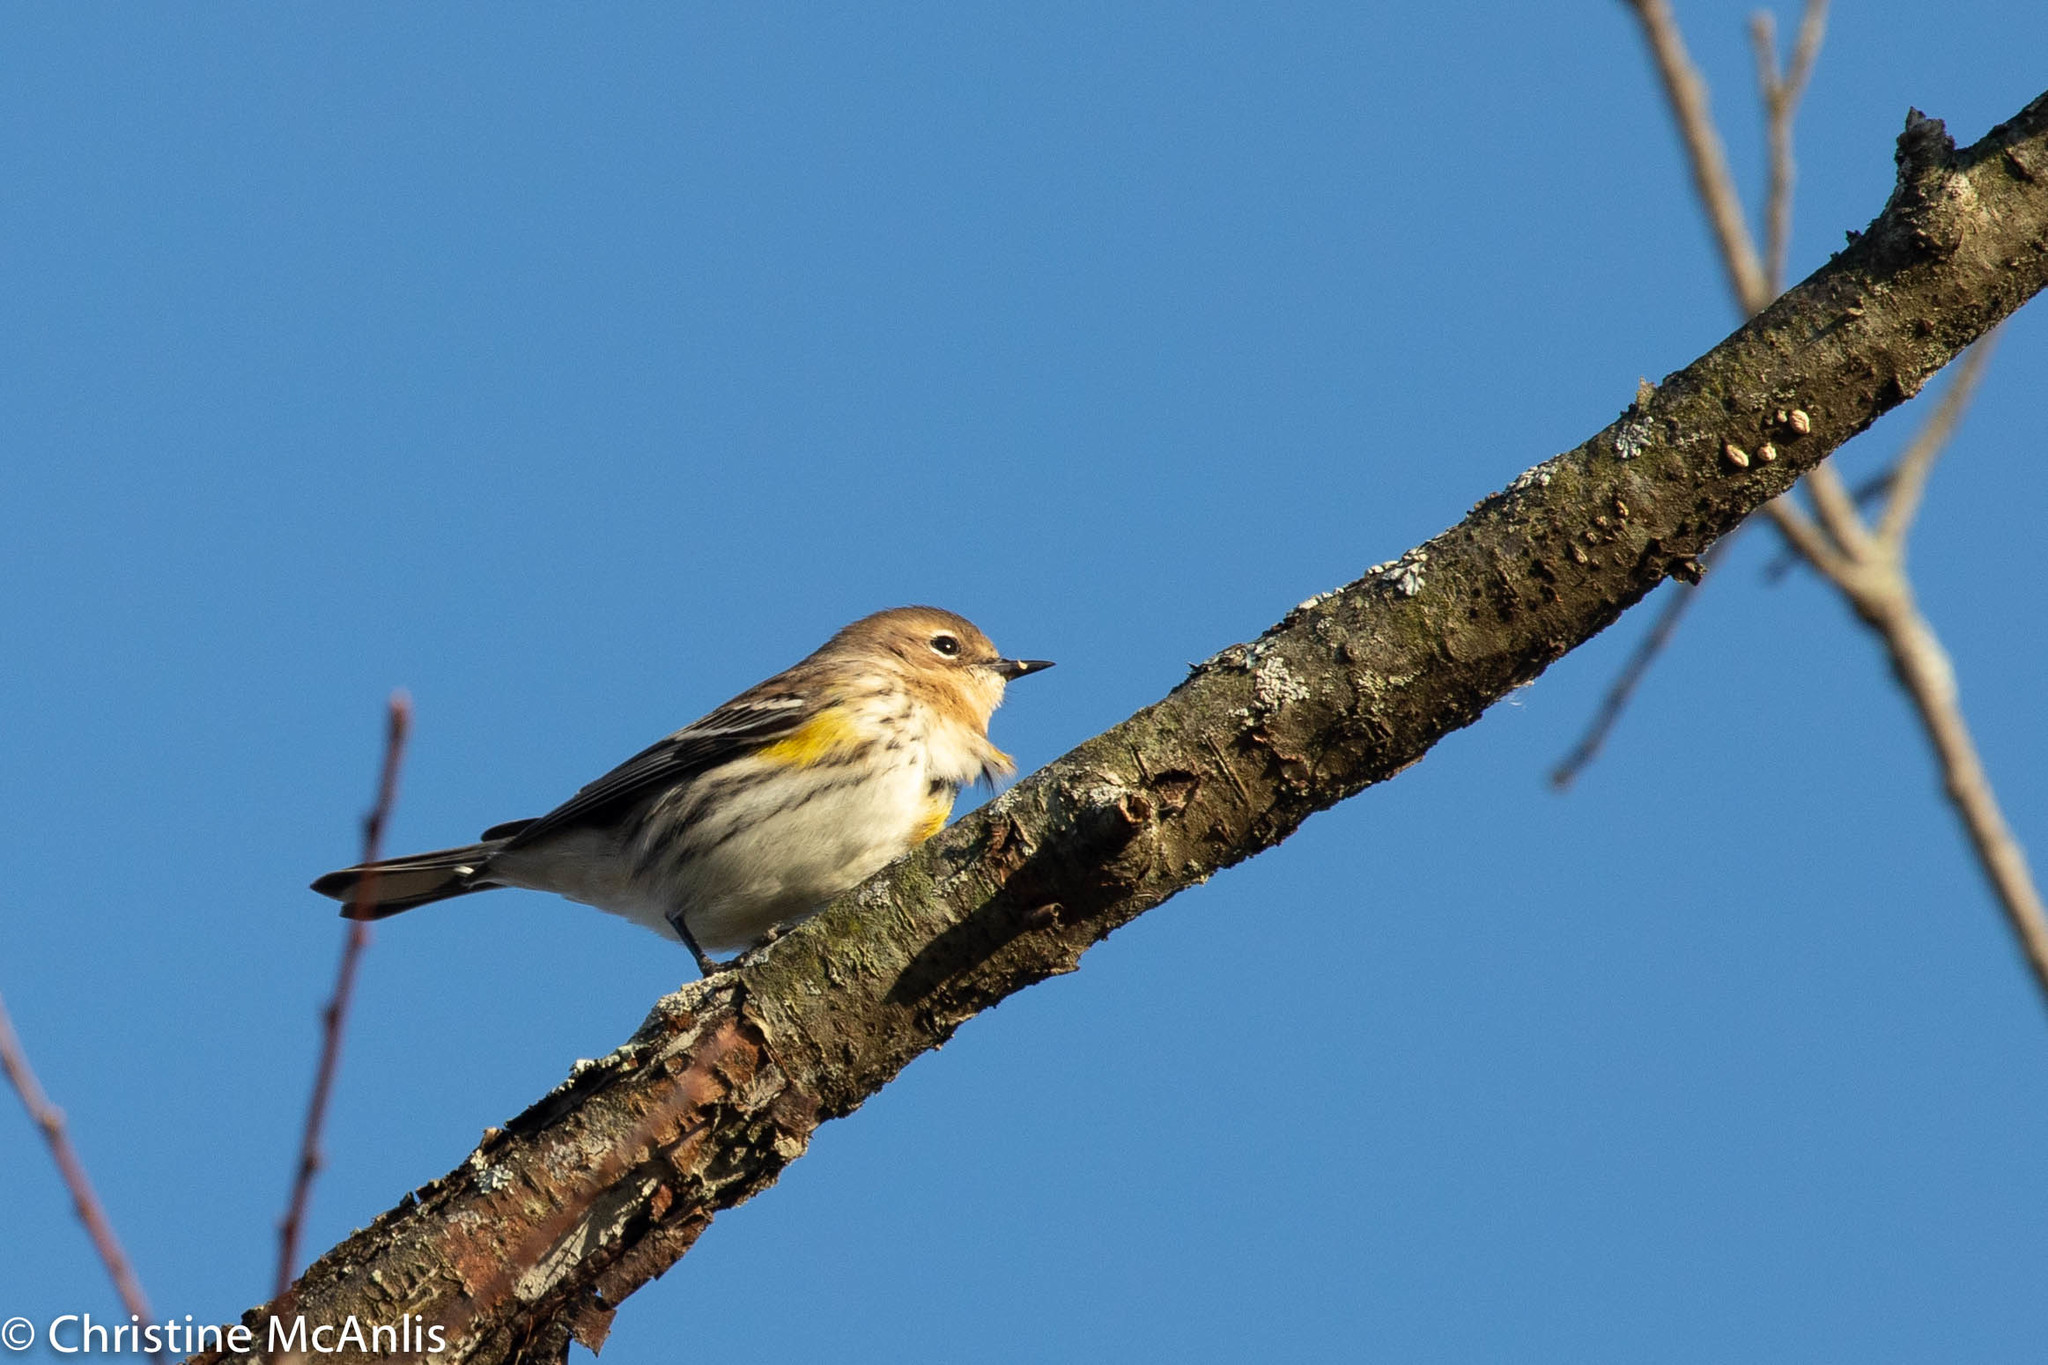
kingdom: Animalia
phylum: Chordata
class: Aves
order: Passeriformes
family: Parulidae
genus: Setophaga
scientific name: Setophaga coronata
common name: Myrtle warbler
